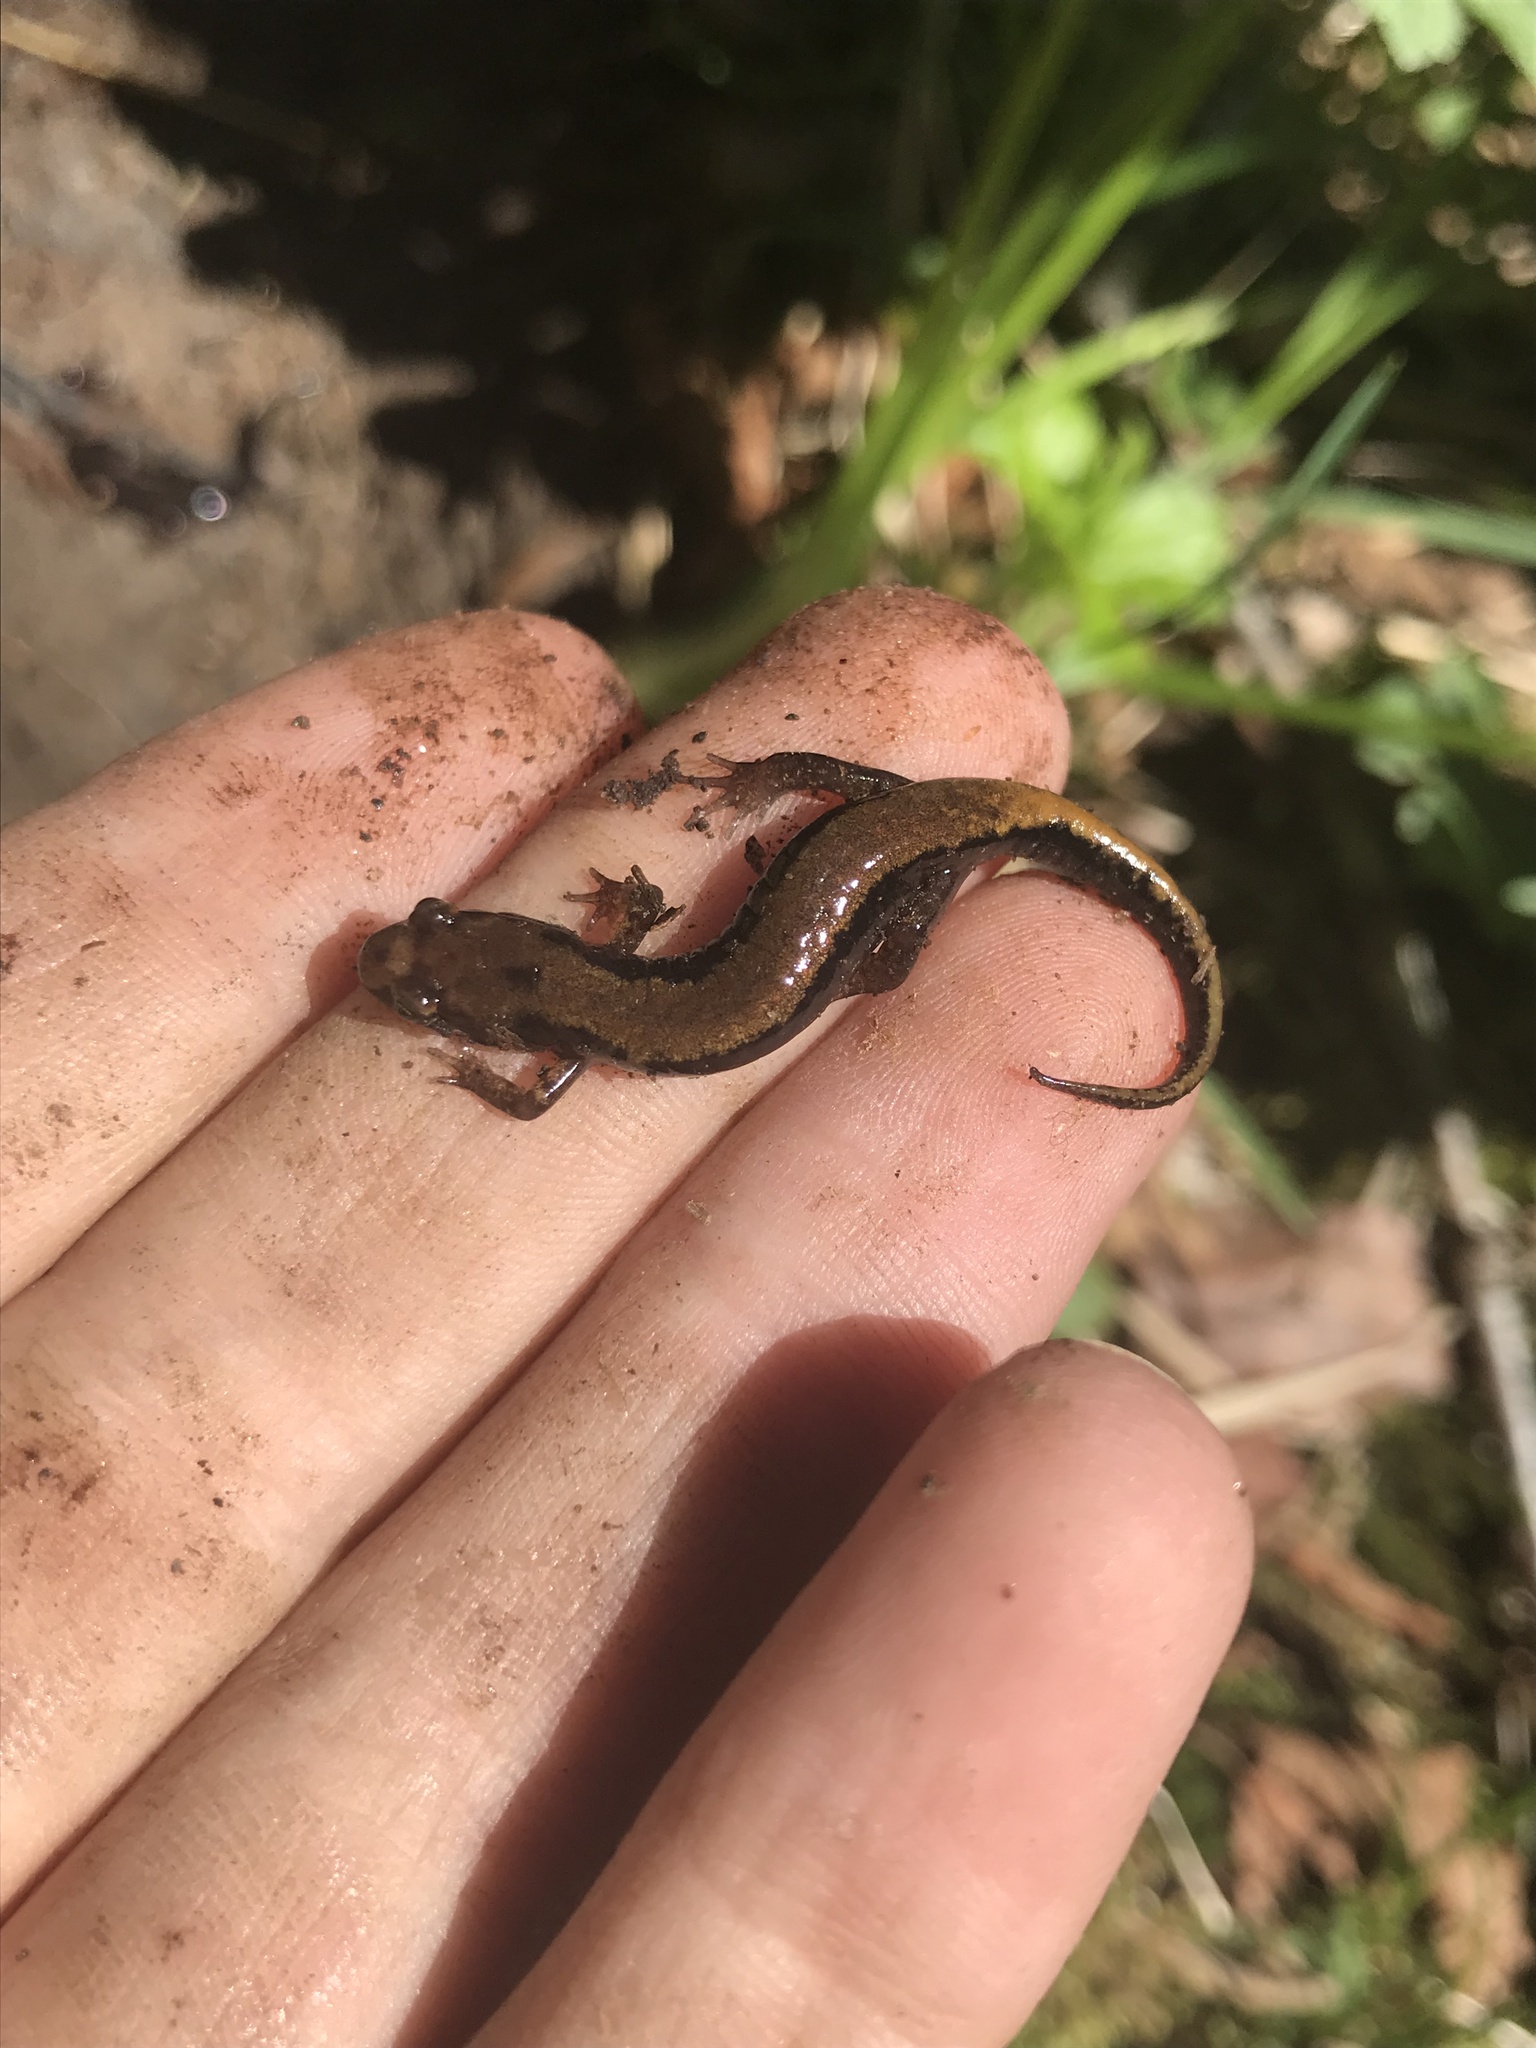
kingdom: Animalia
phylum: Chordata
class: Amphibia
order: Caudata
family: Plethodontidae
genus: Desmognathus
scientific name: Desmognathus adatsihi
